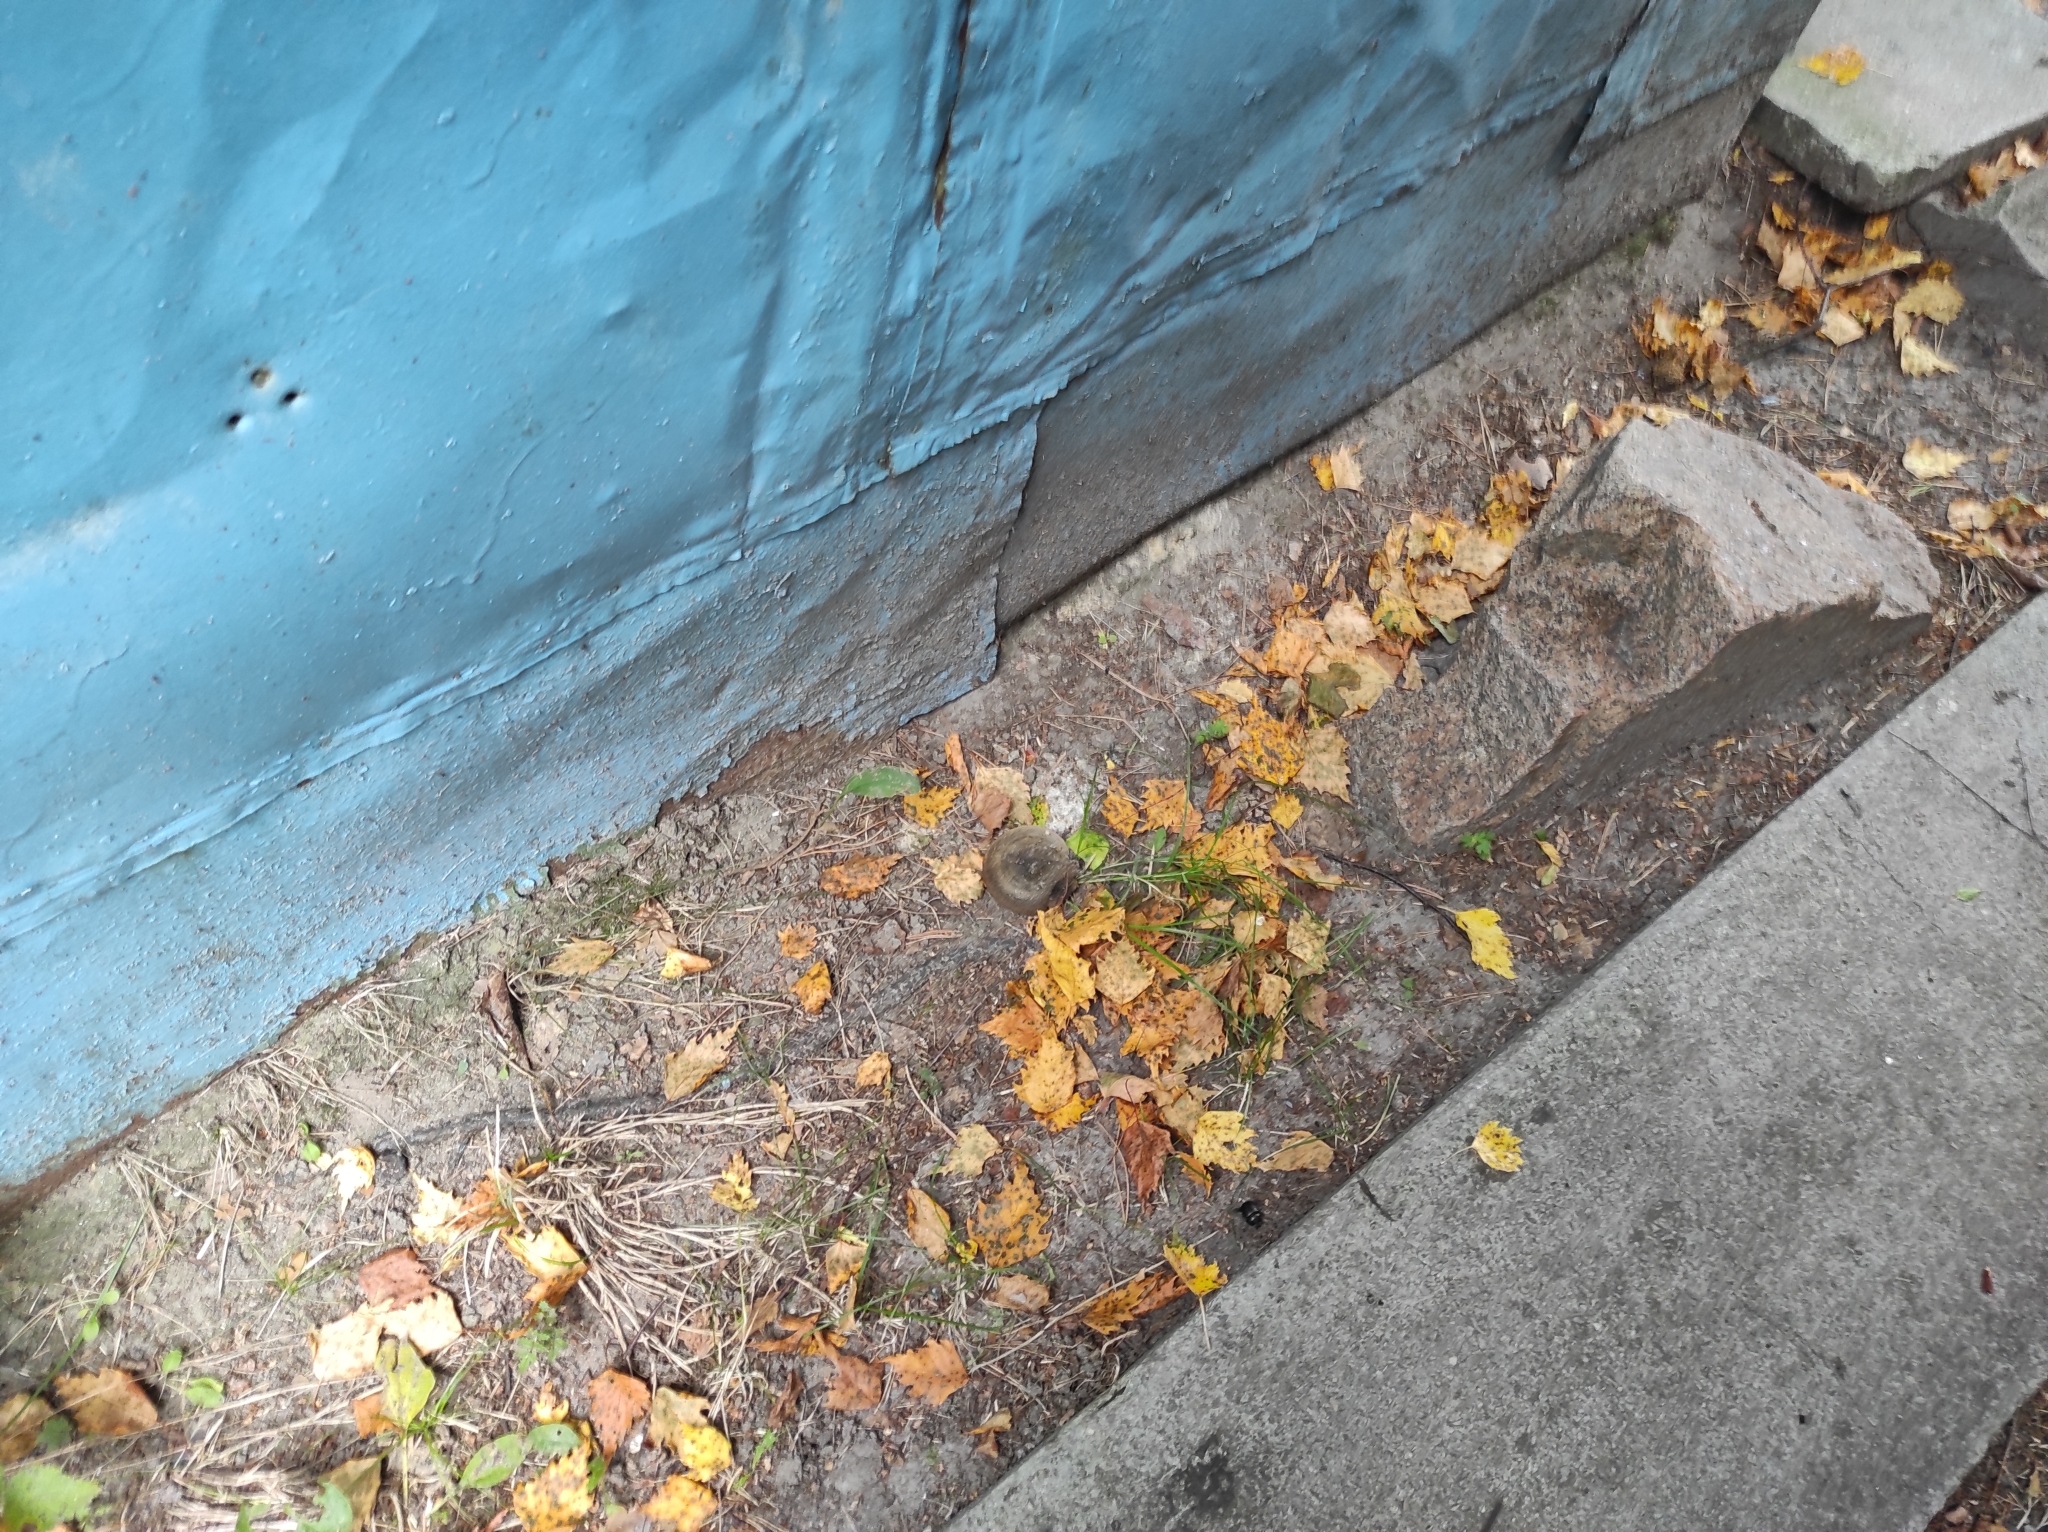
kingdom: Fungi
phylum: Basidiomycota
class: Agaricomycetes
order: Russulales
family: Russulaceae
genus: Lactarius
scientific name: Lactarius turpis
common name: Ugly milk-cap
